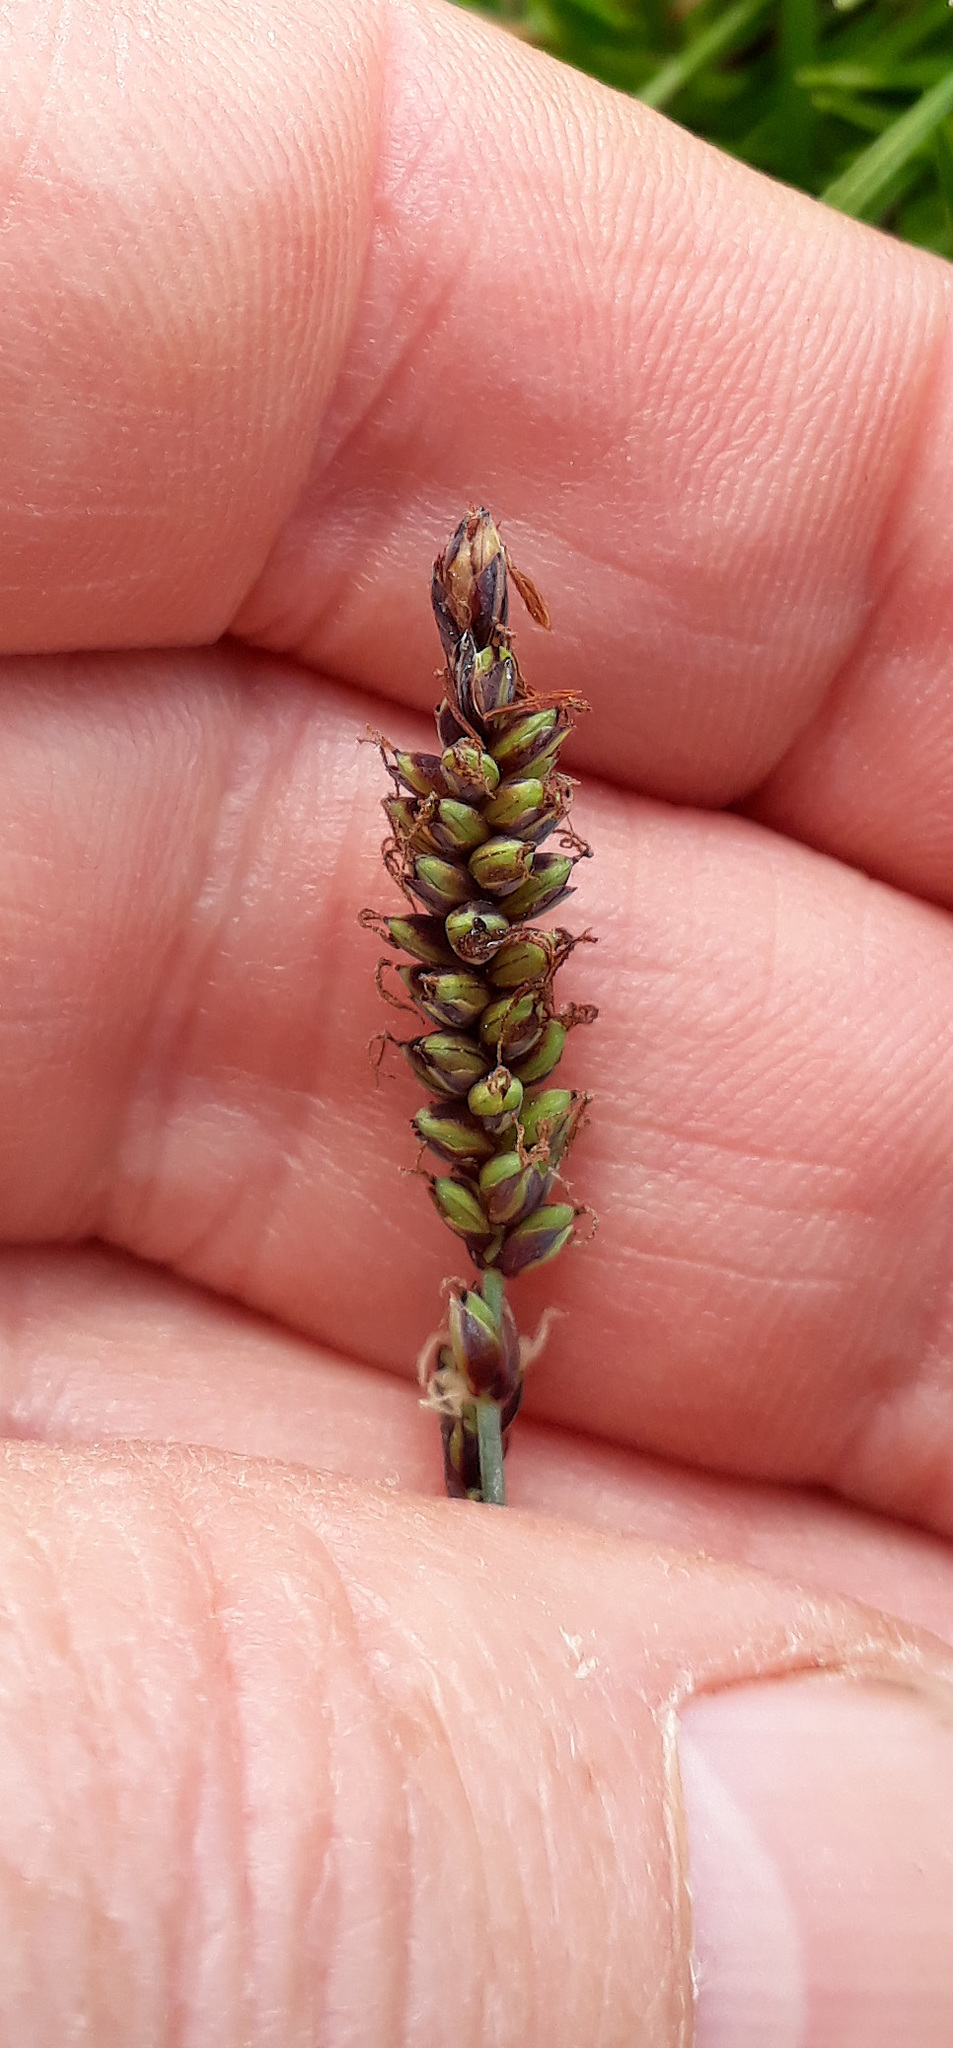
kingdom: Plantae
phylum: Tracheophyta
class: Liliopsida
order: Poales
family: Cyperaceae
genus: Carex
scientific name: Carex flacca
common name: Glaucous sedge
